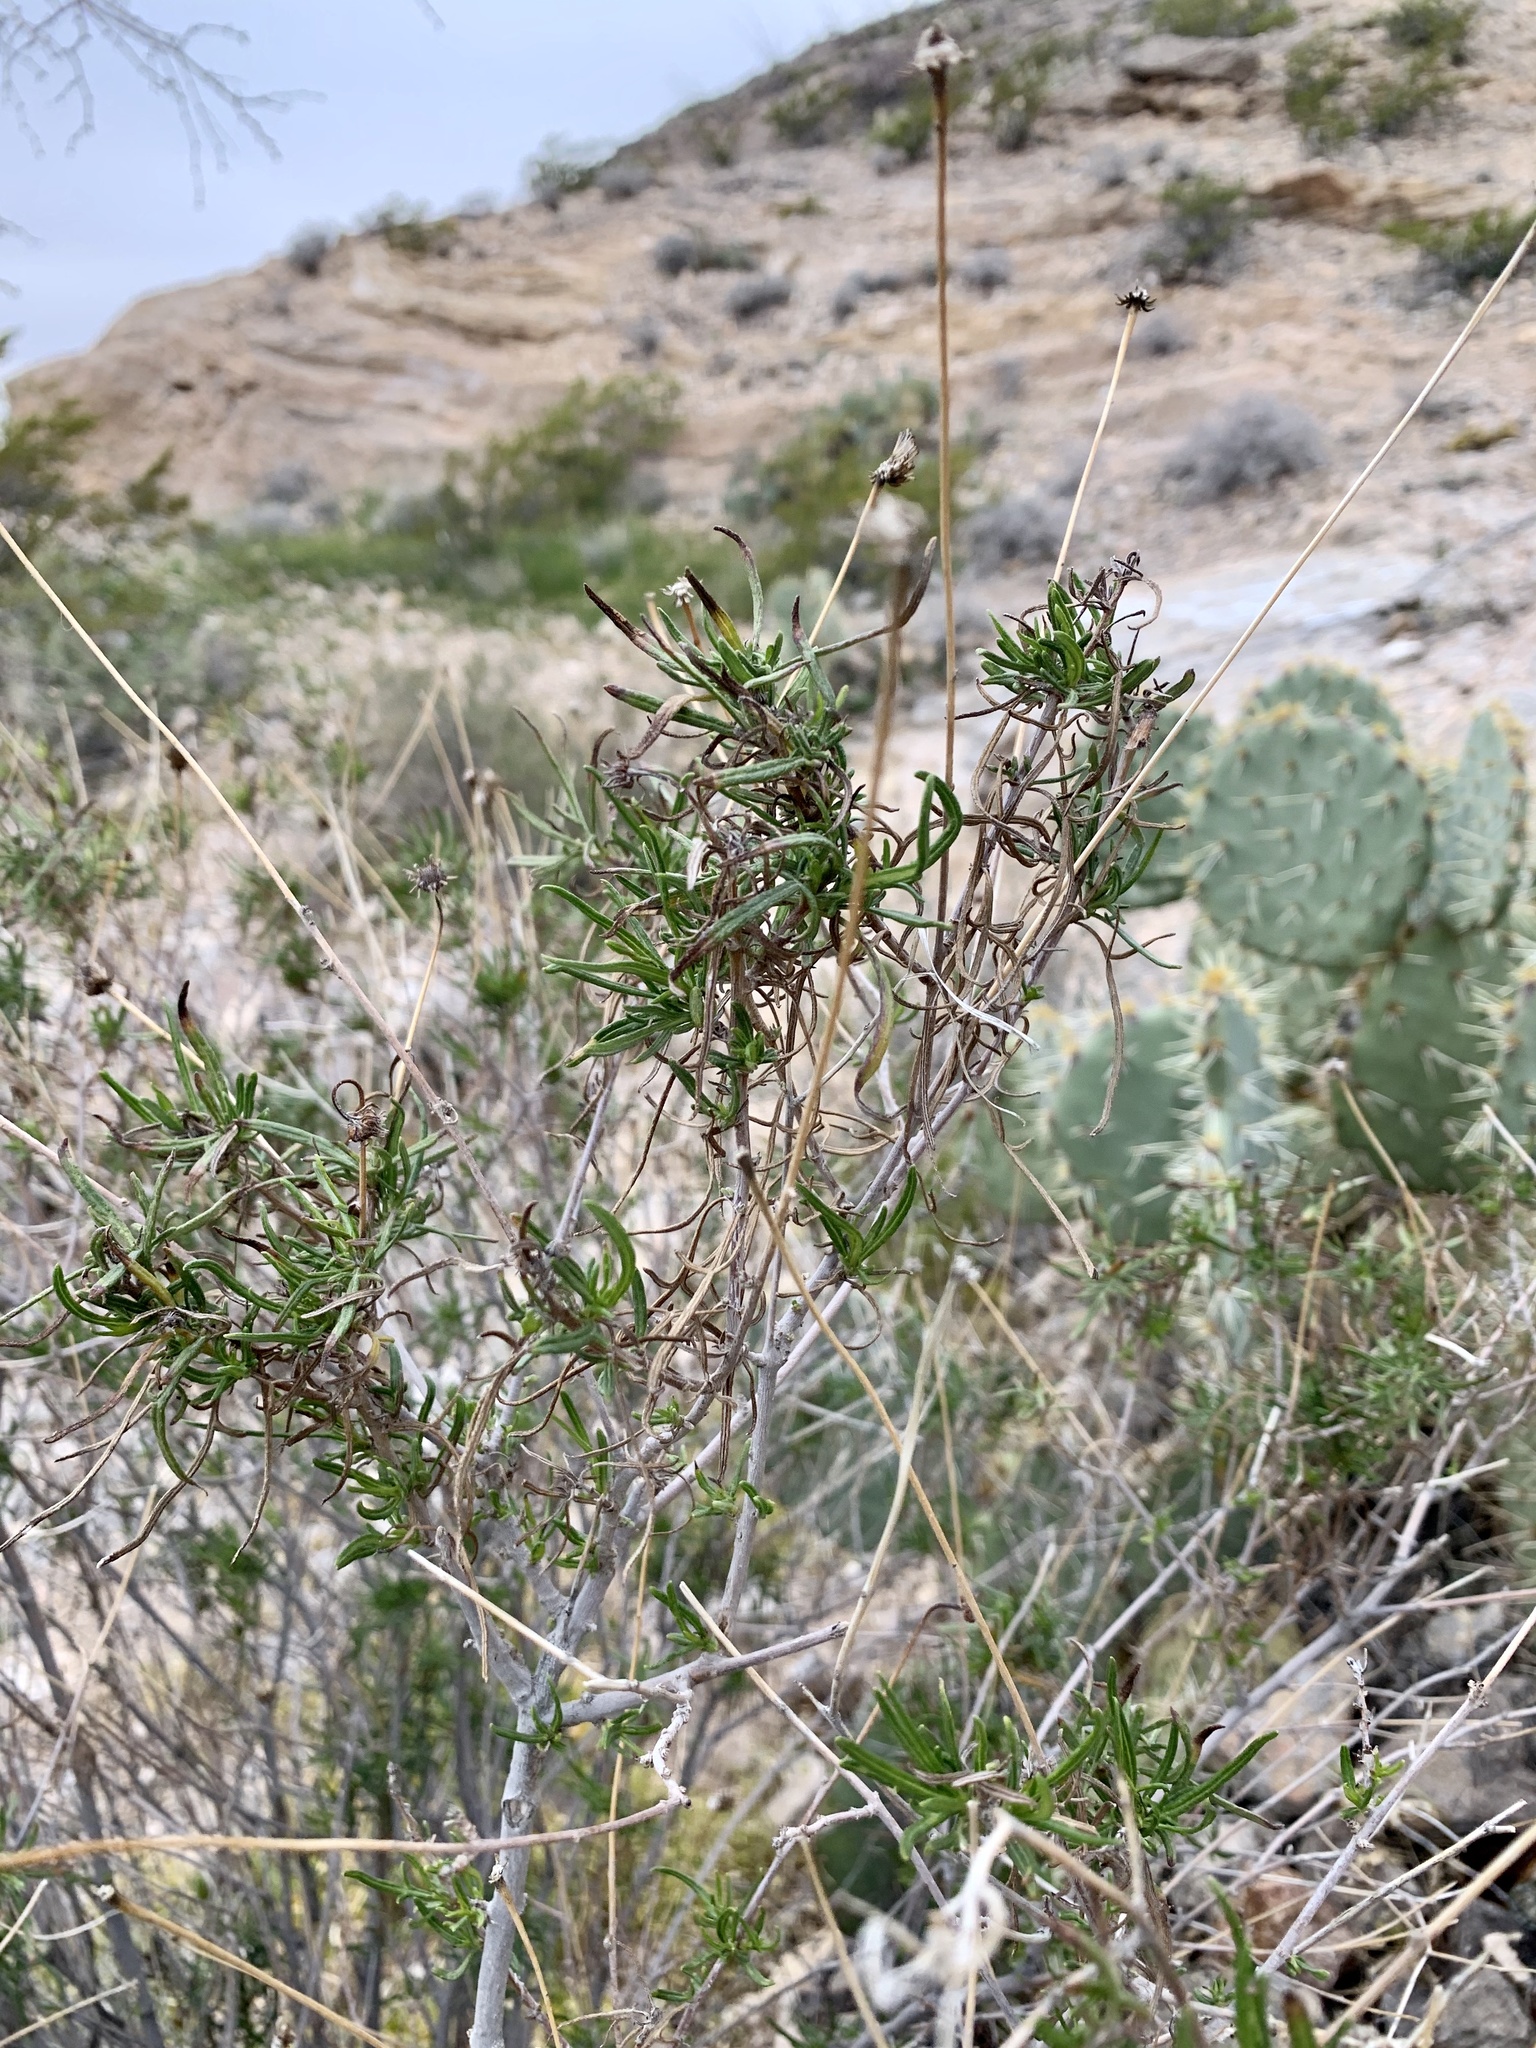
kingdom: Plantae
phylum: Tracheophyta
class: Magnoliopsida
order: Asterales
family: Asteraceae
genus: Sidneya
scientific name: Sidneya tenuifolia
